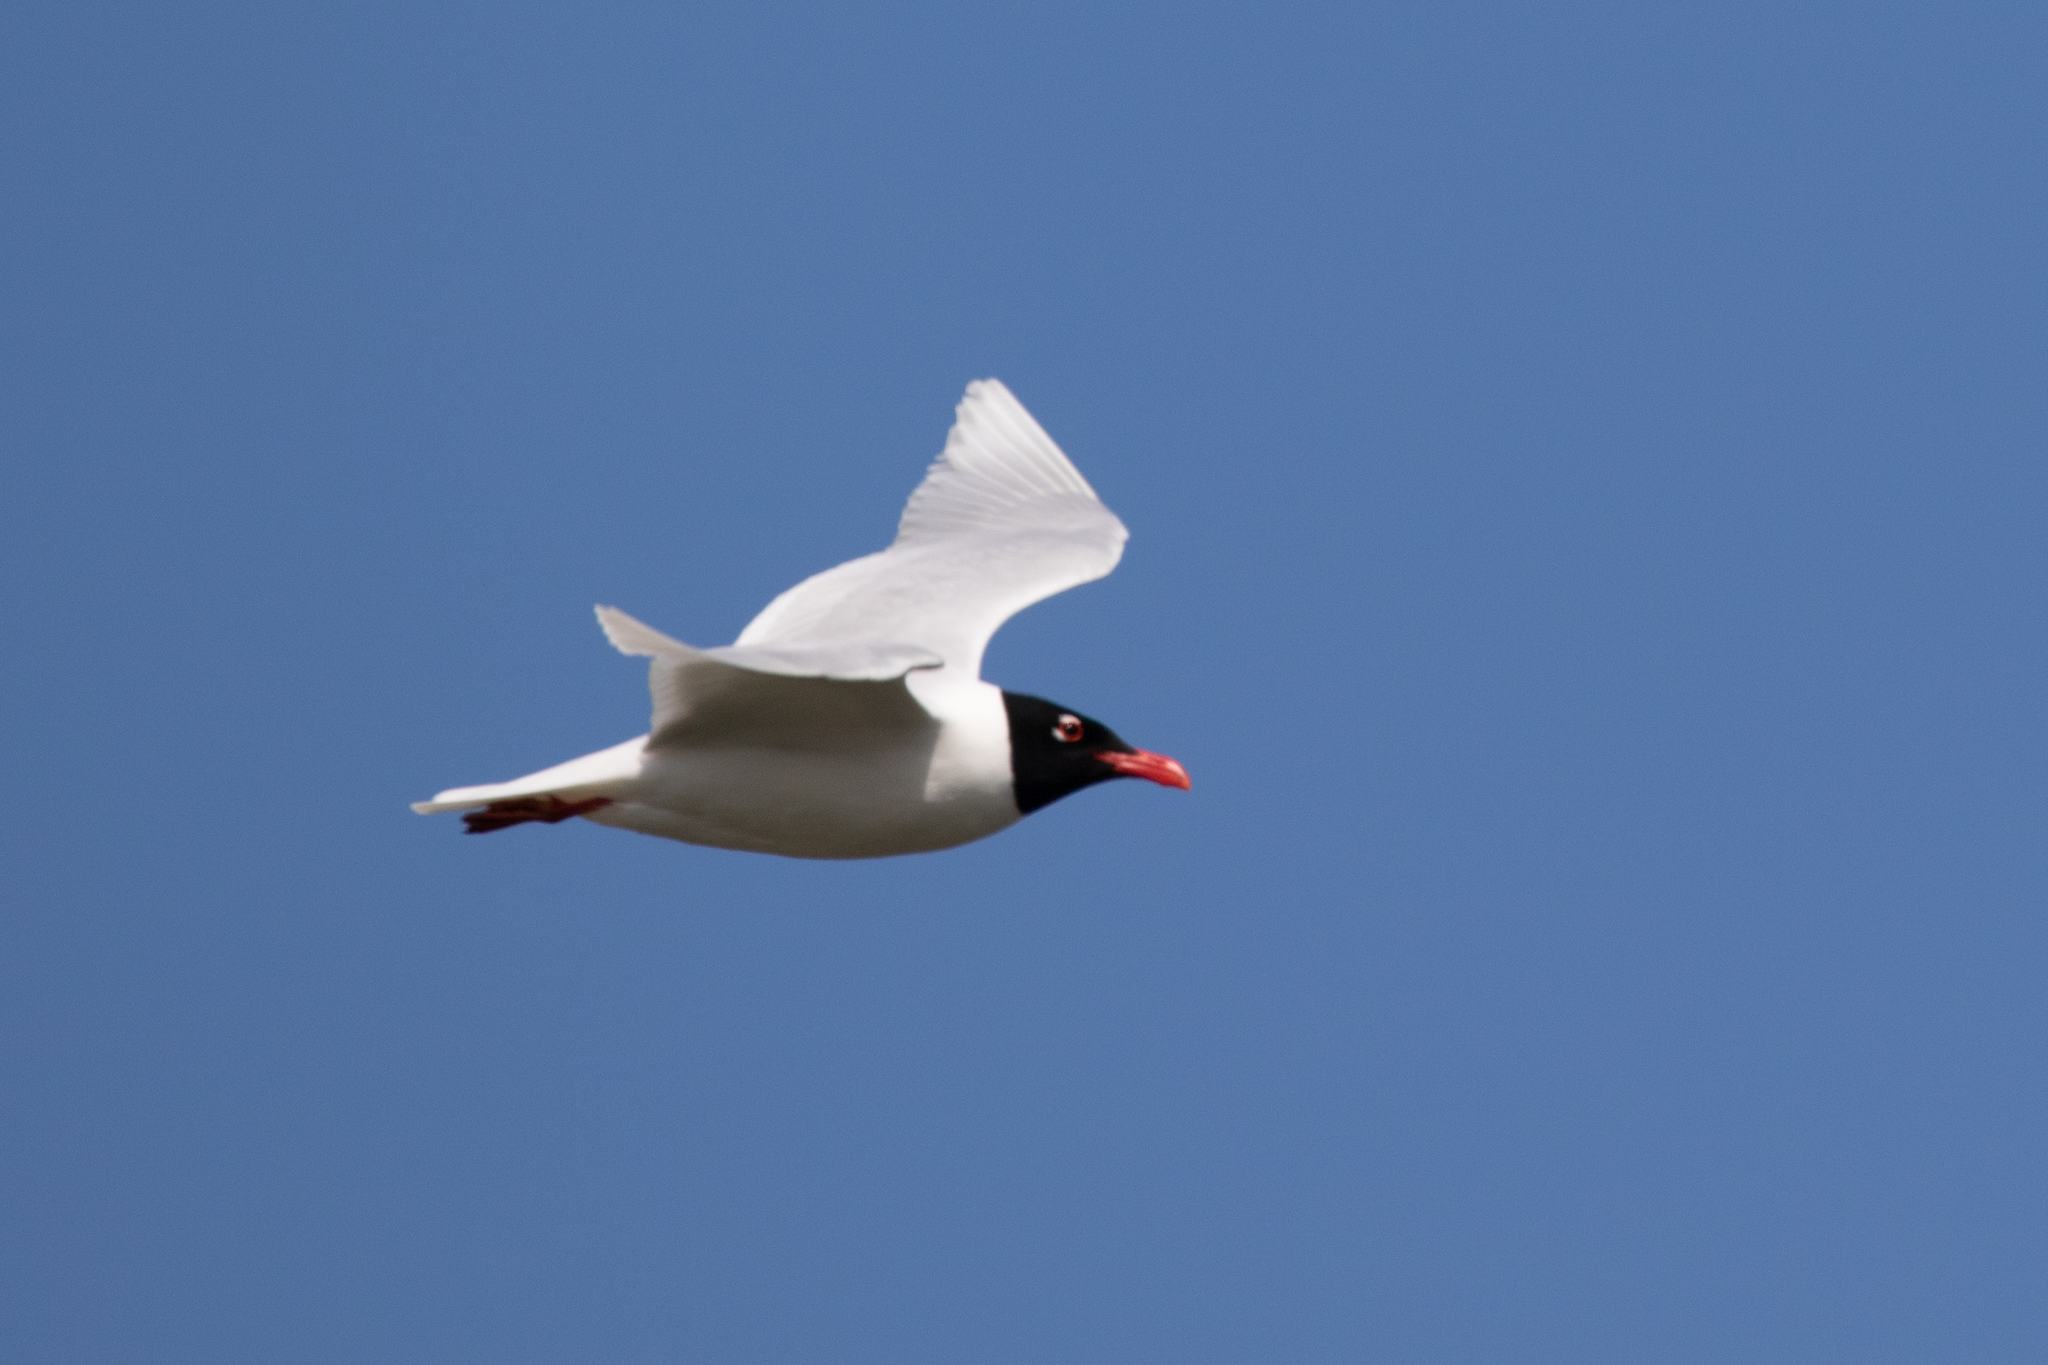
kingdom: Animalia
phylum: Chordata
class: Aves
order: Charadriiformes
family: Laridae
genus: Ichthyaetus
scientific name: Ichthyaetus melanocephalus
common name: Mediterranean gull
